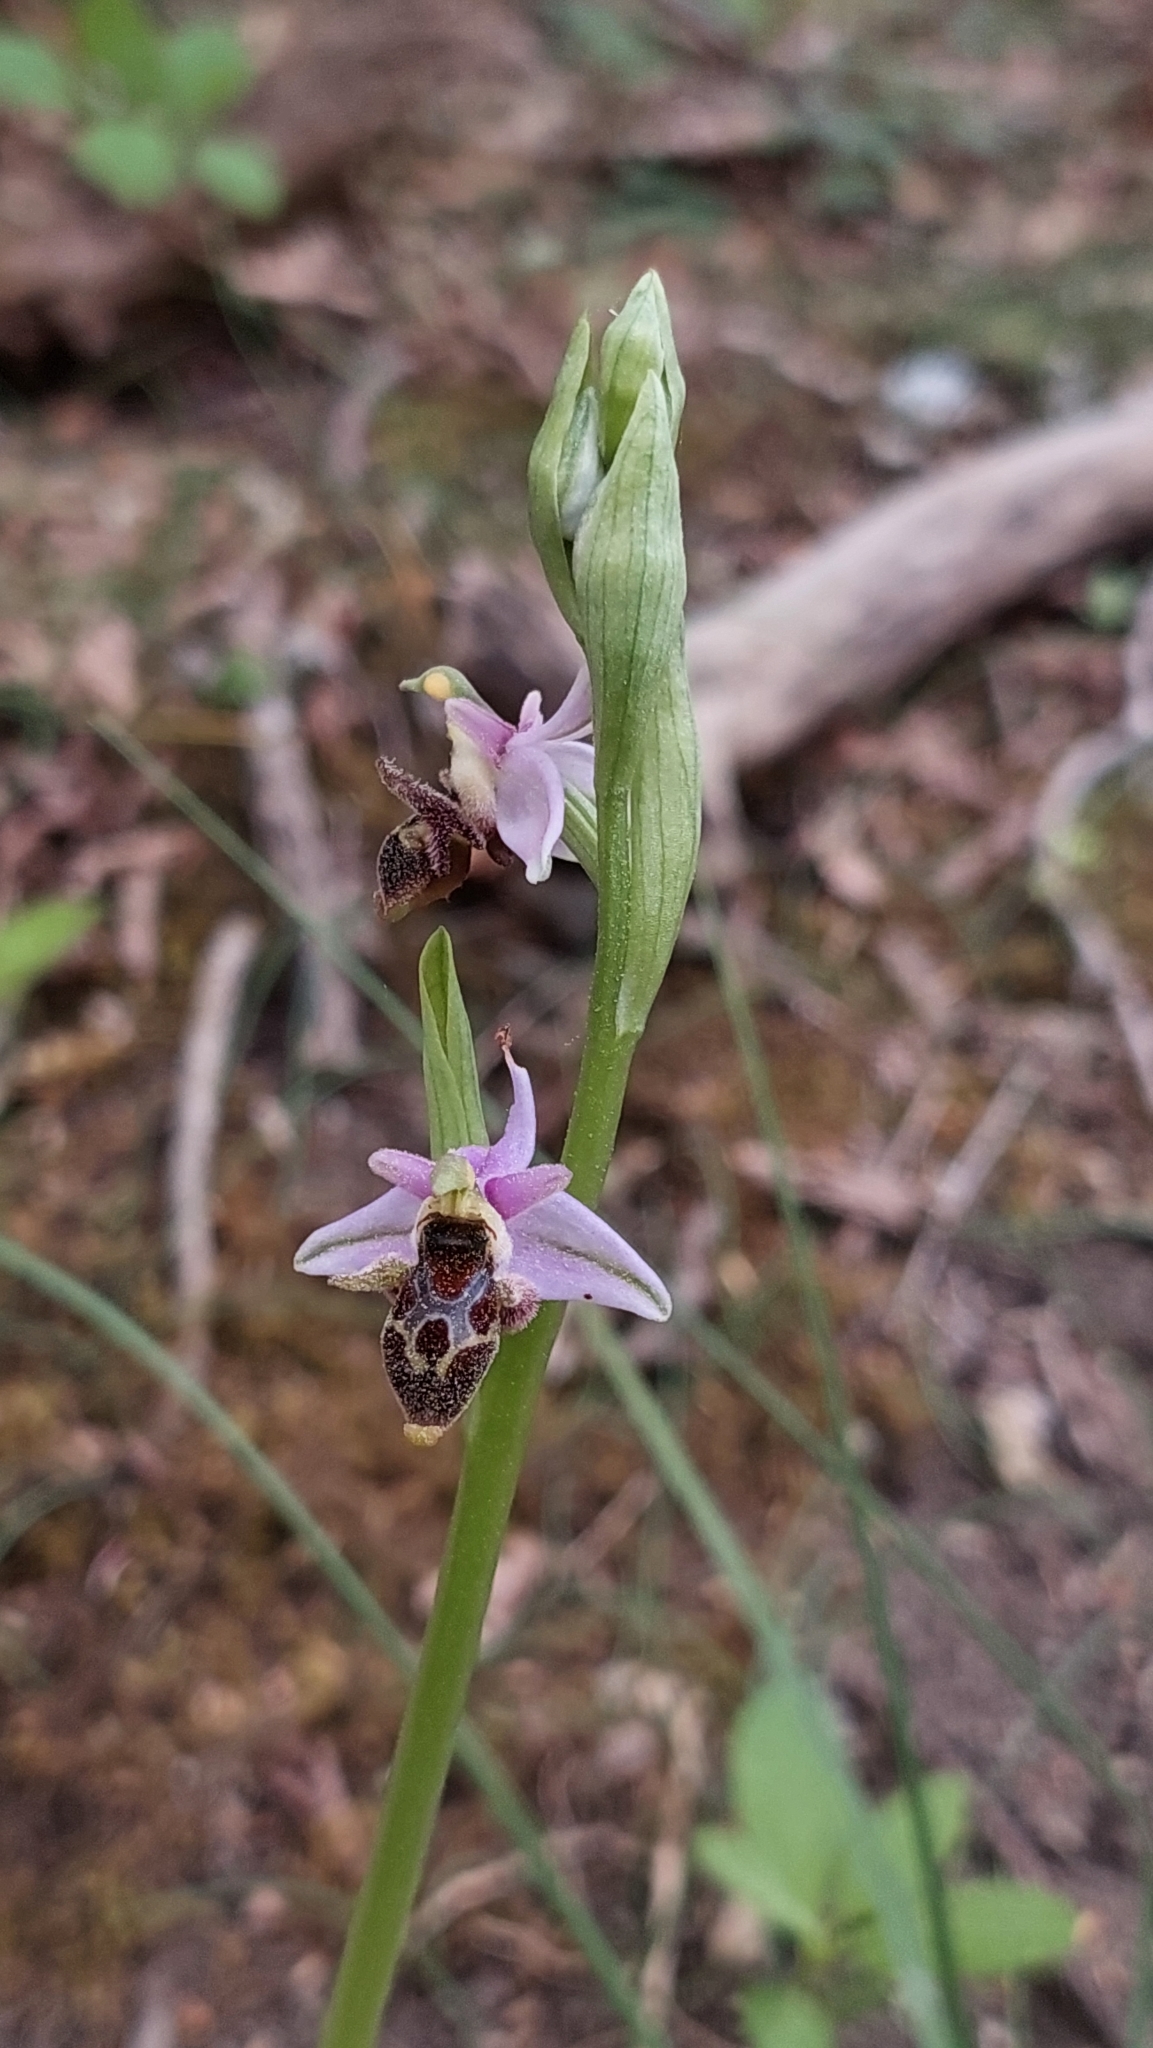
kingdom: Plantae
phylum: Tracheophyta
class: Liliopsida
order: Asparagales
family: Orchidaceae
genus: Ophrys
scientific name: Ophrys
